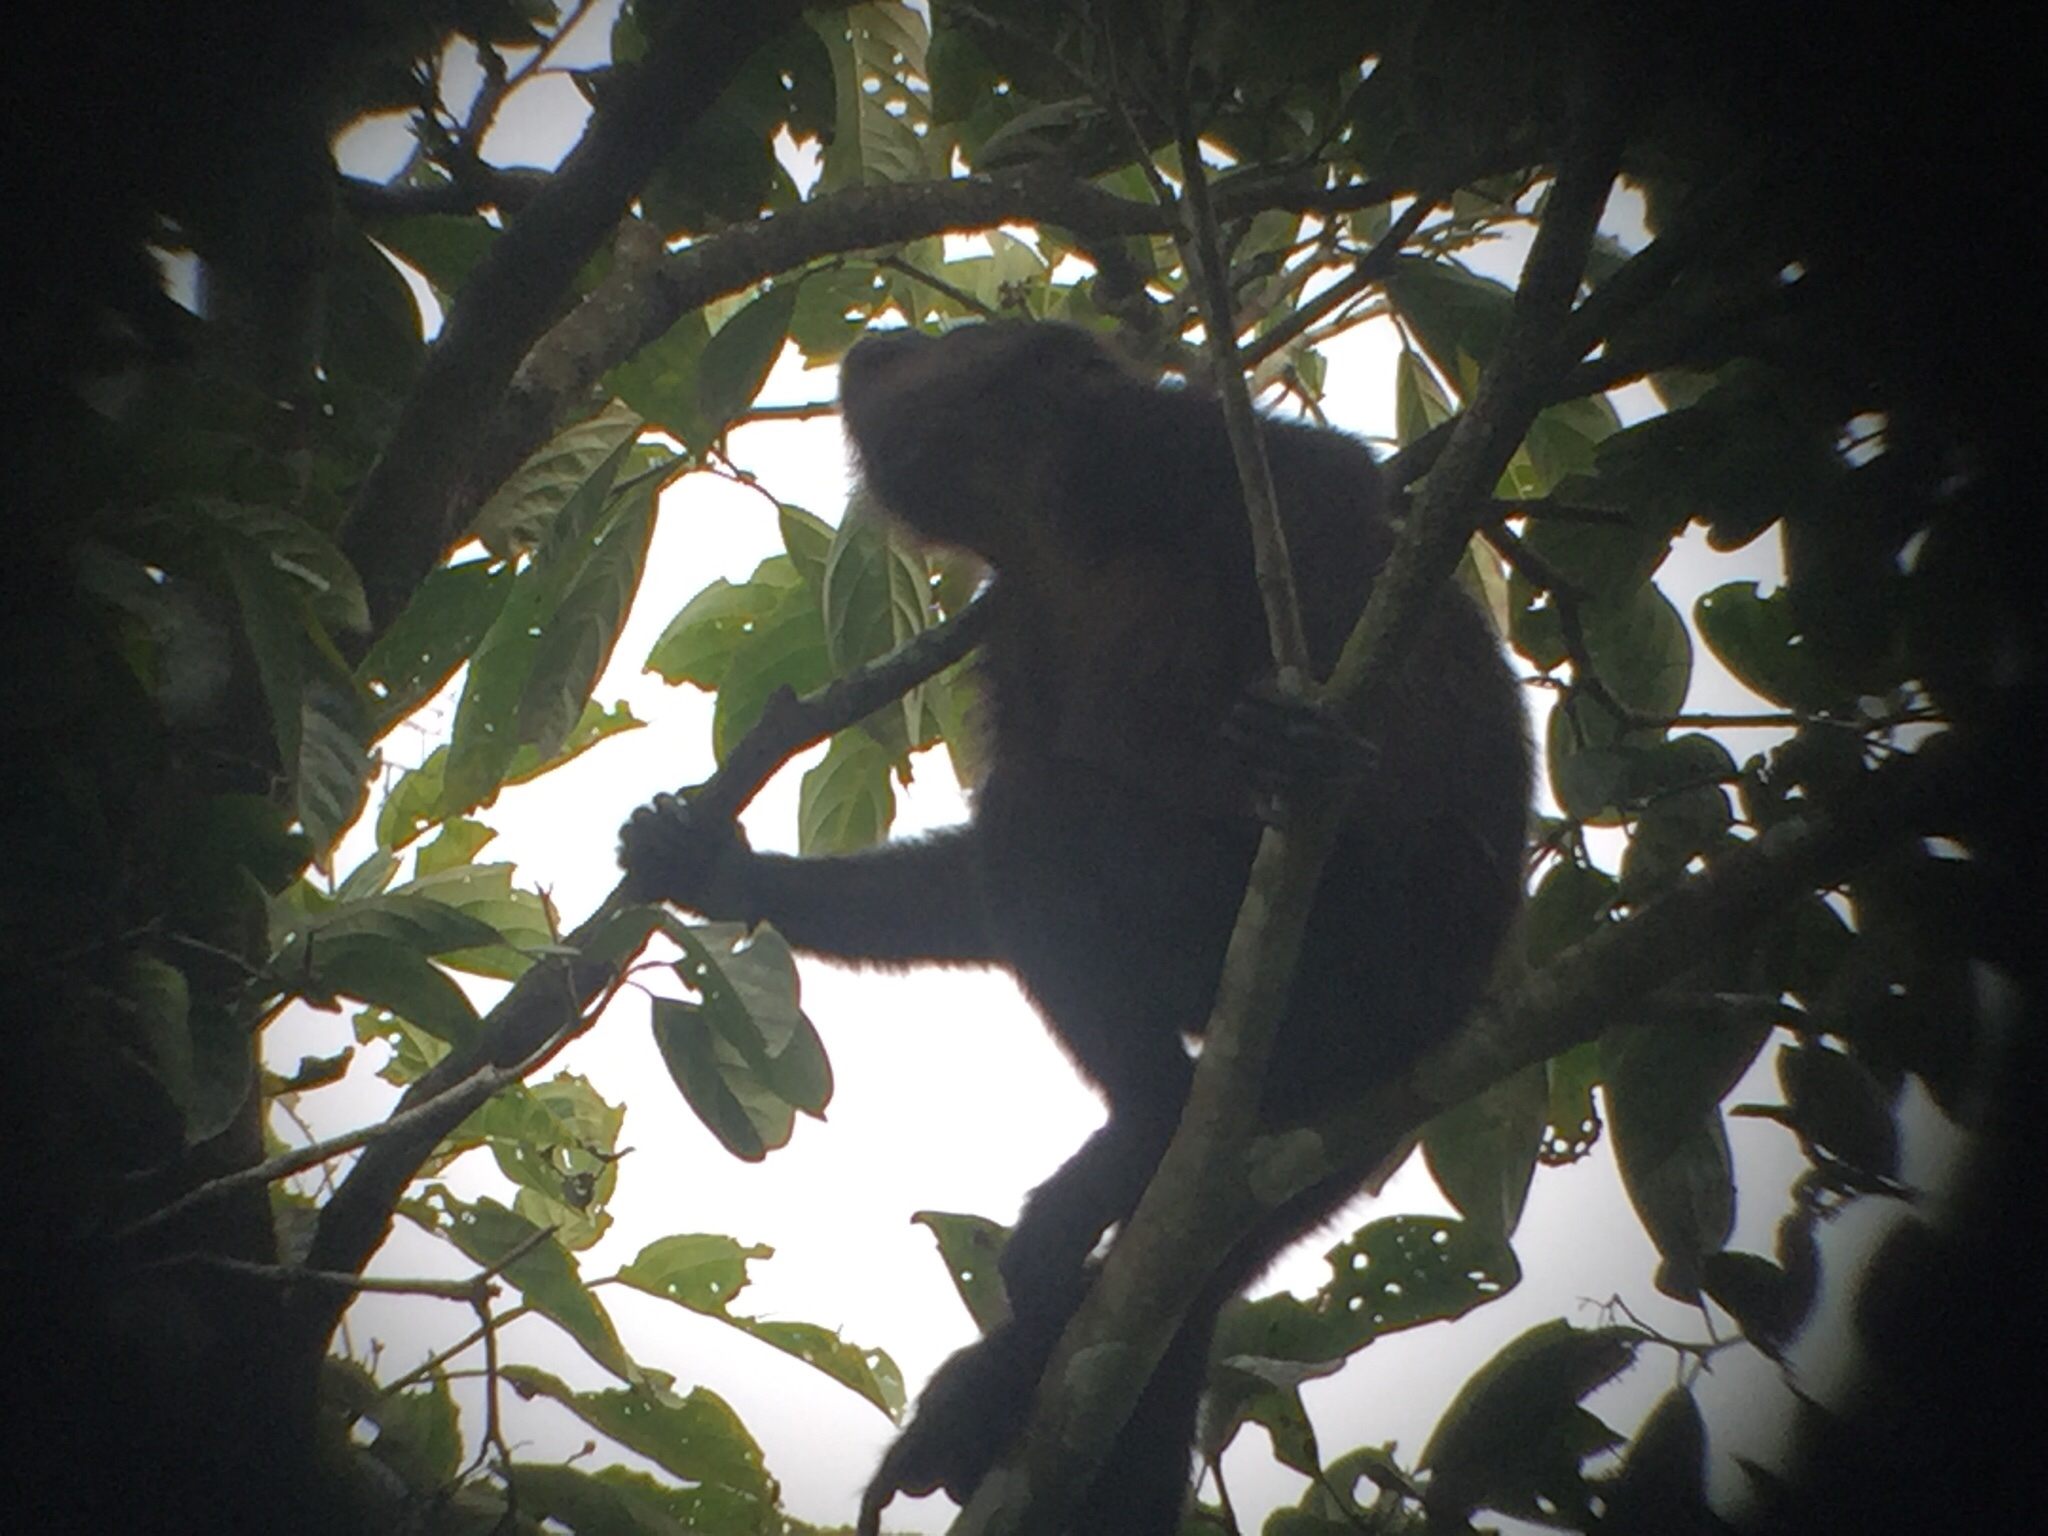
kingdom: Animalia
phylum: Chordata
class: Mammalia
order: Primates
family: Atelidae
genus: Alouatta
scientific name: Alouatta palliata
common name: Mantled howler
